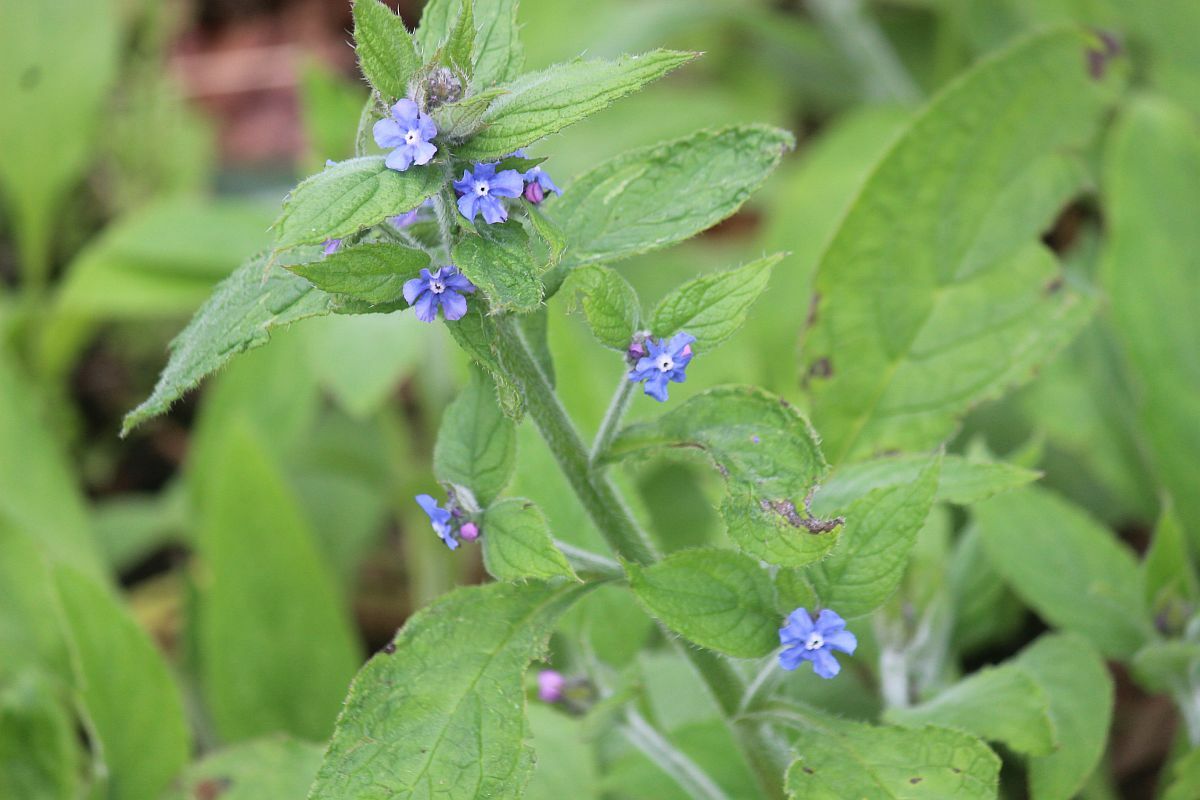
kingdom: Plantae
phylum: Tracheophyta
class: Magnoliopsida
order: Boraginales
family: Boraginaceae
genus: Pentaglottis
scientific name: Pentaglottis sempervirens
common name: Green alkanet
